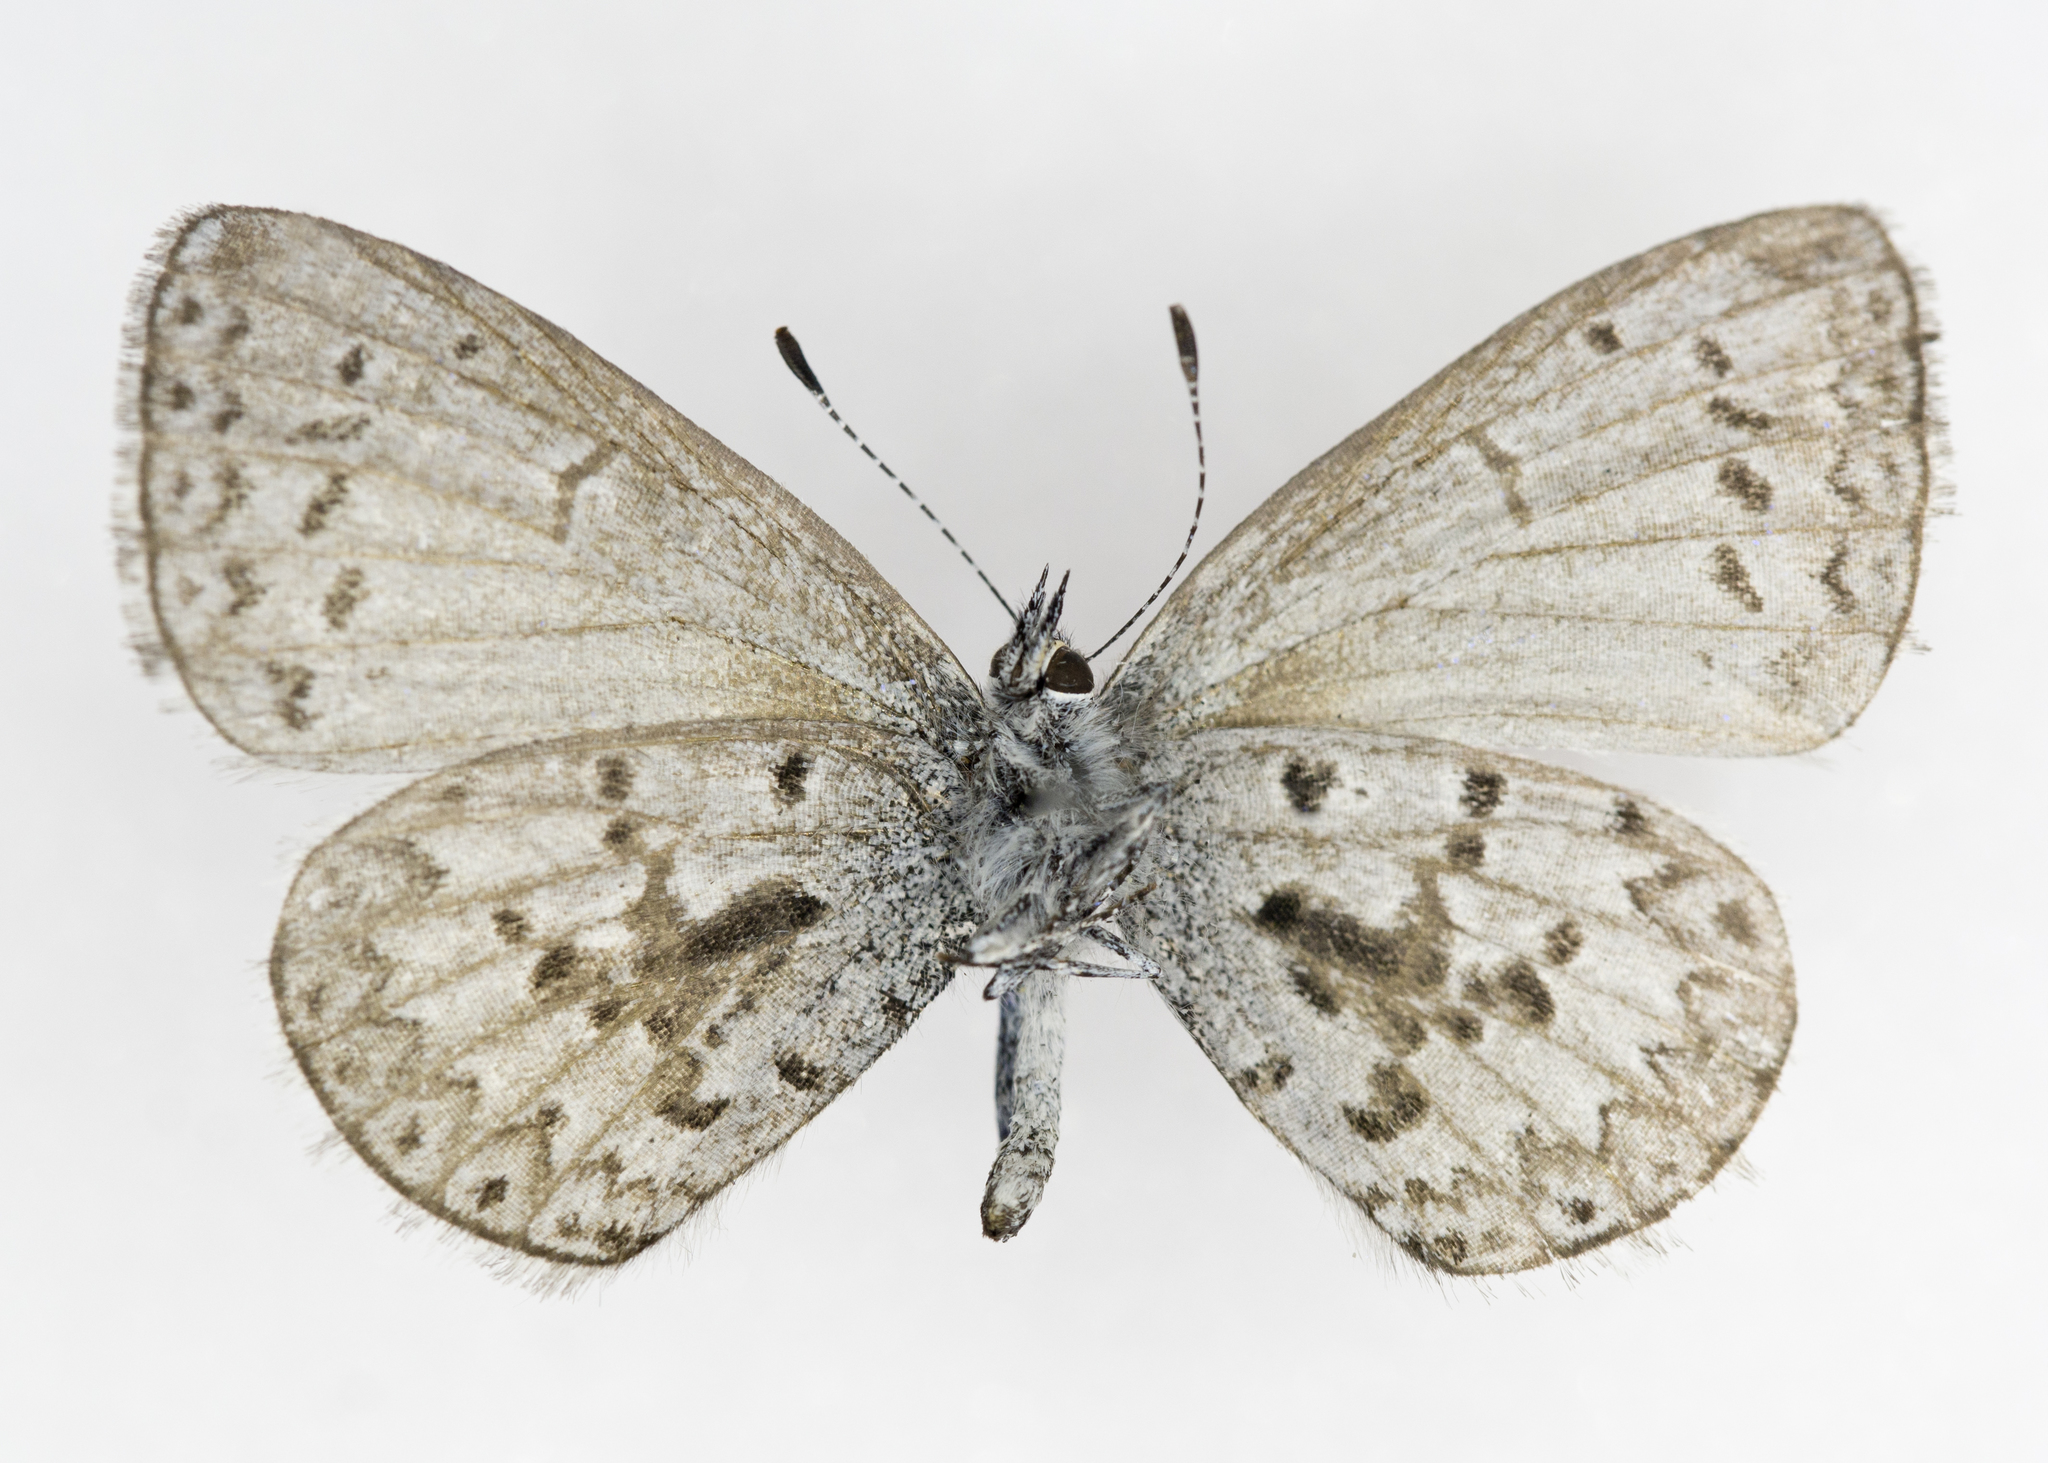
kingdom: Animalia
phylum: Arthropoda
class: Insecta
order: Lepidoptera
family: Lycaenidae
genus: Celastrina
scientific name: Celastrina lucia
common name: Lucia azure
